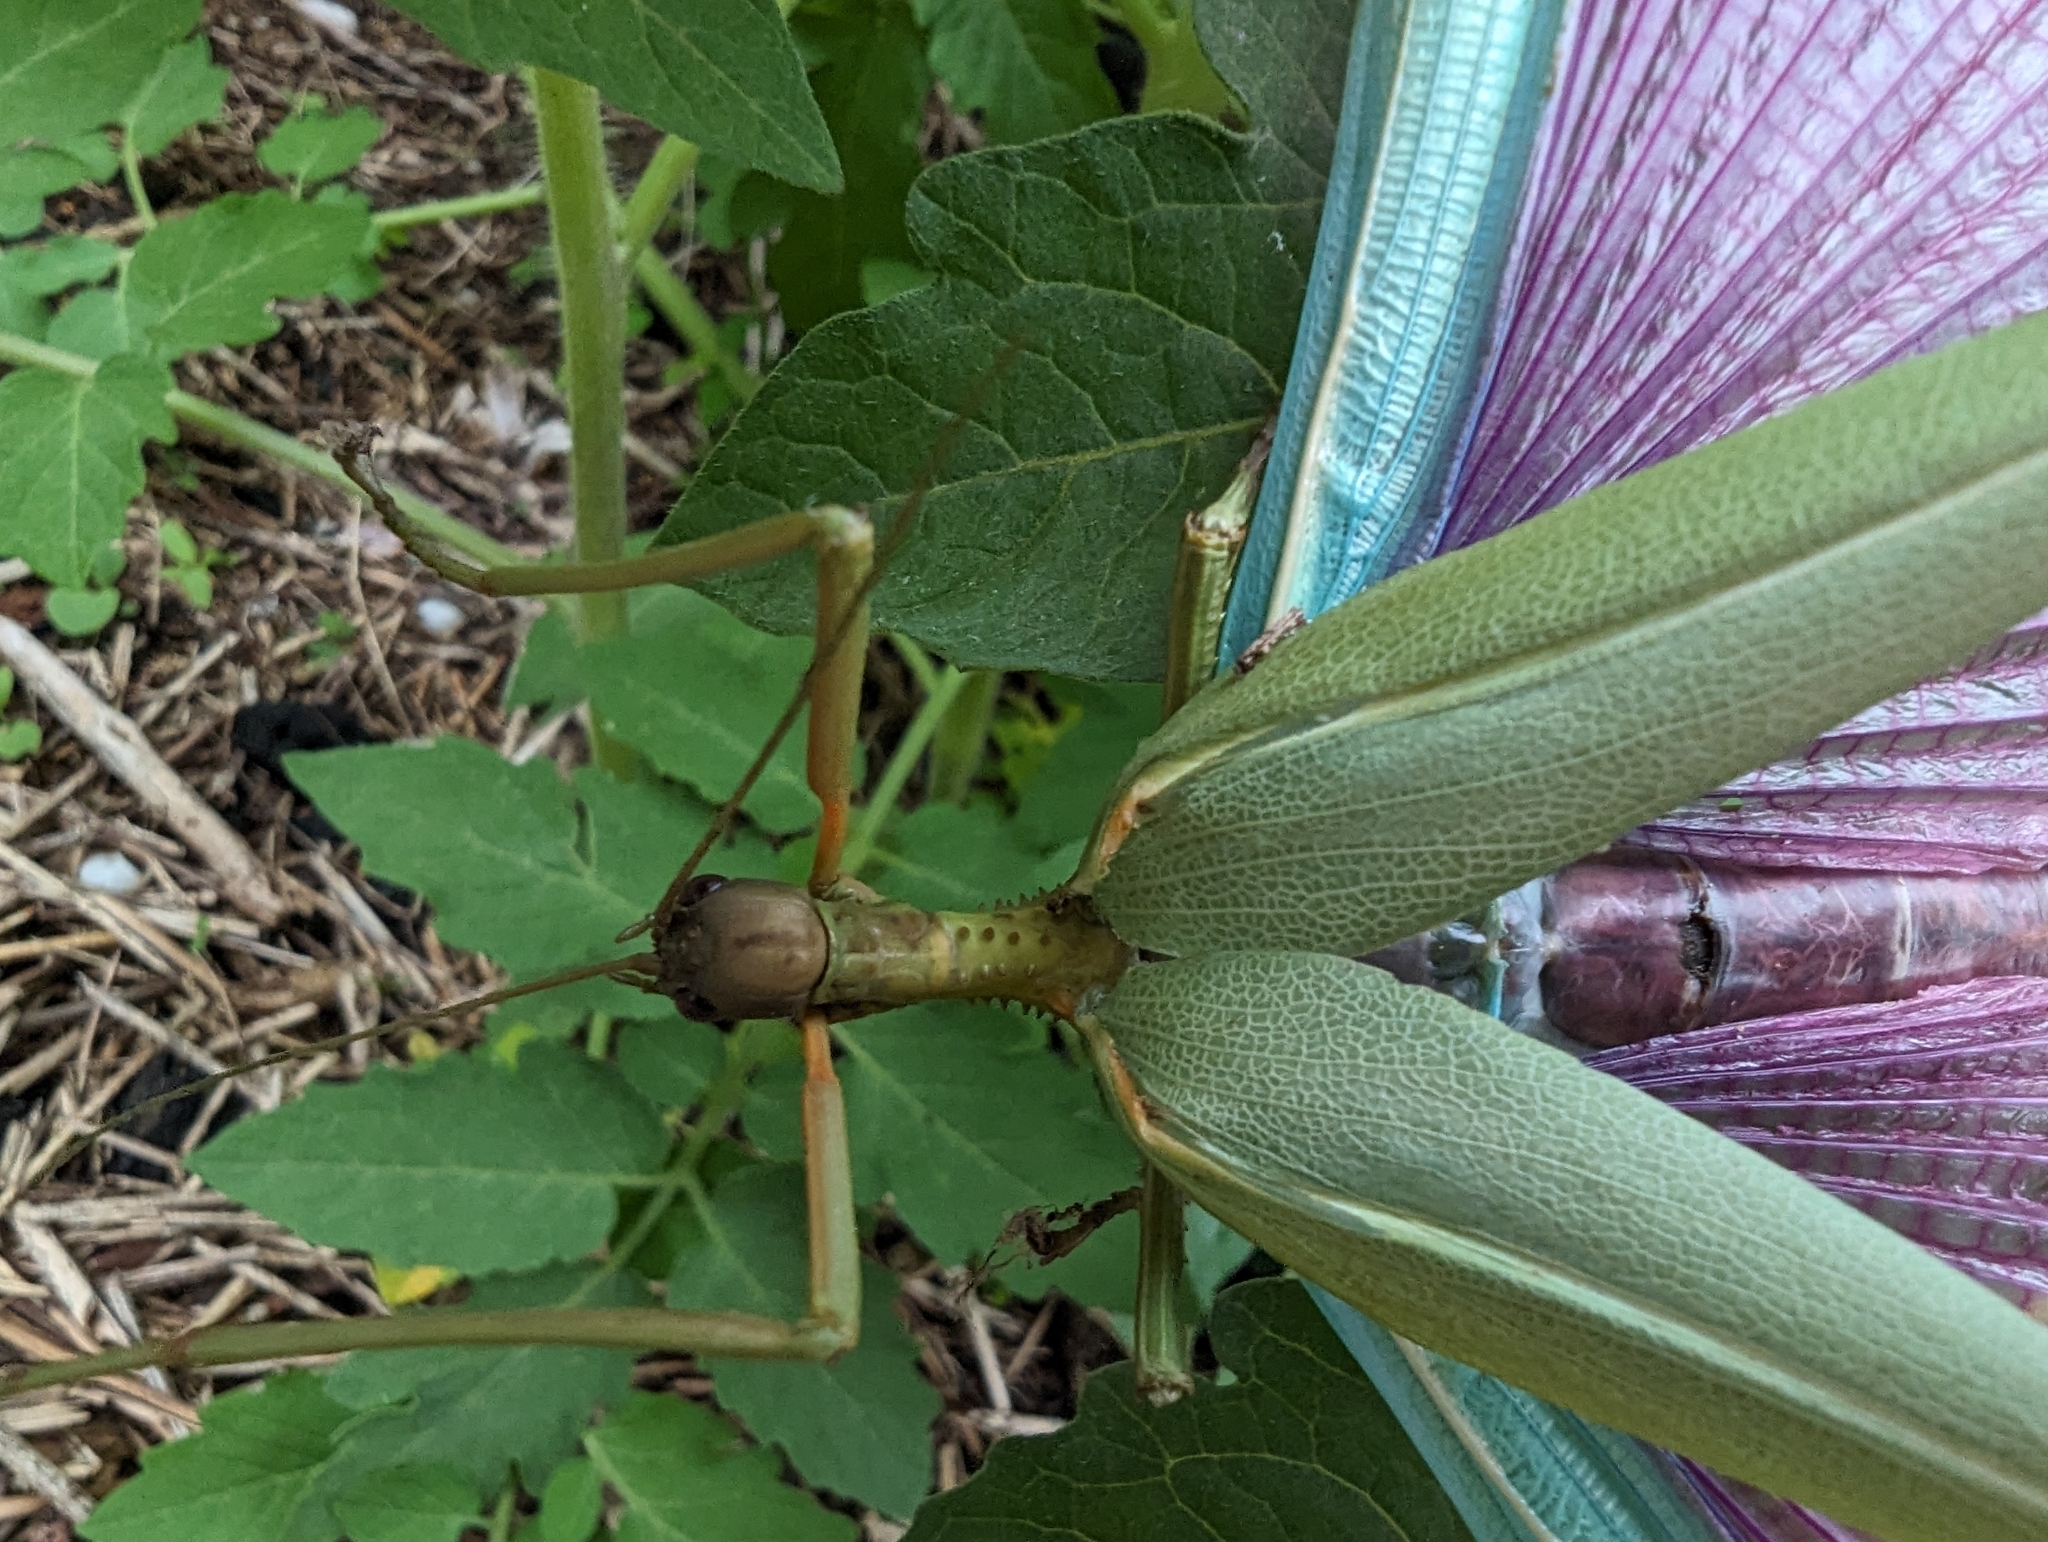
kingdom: Animalia
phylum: Arthropoda
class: Insecta
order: Phasmida
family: Phasmatidae
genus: Podacanthus
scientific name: Podacanthus viridiroseus
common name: Red-winged stick-insect
